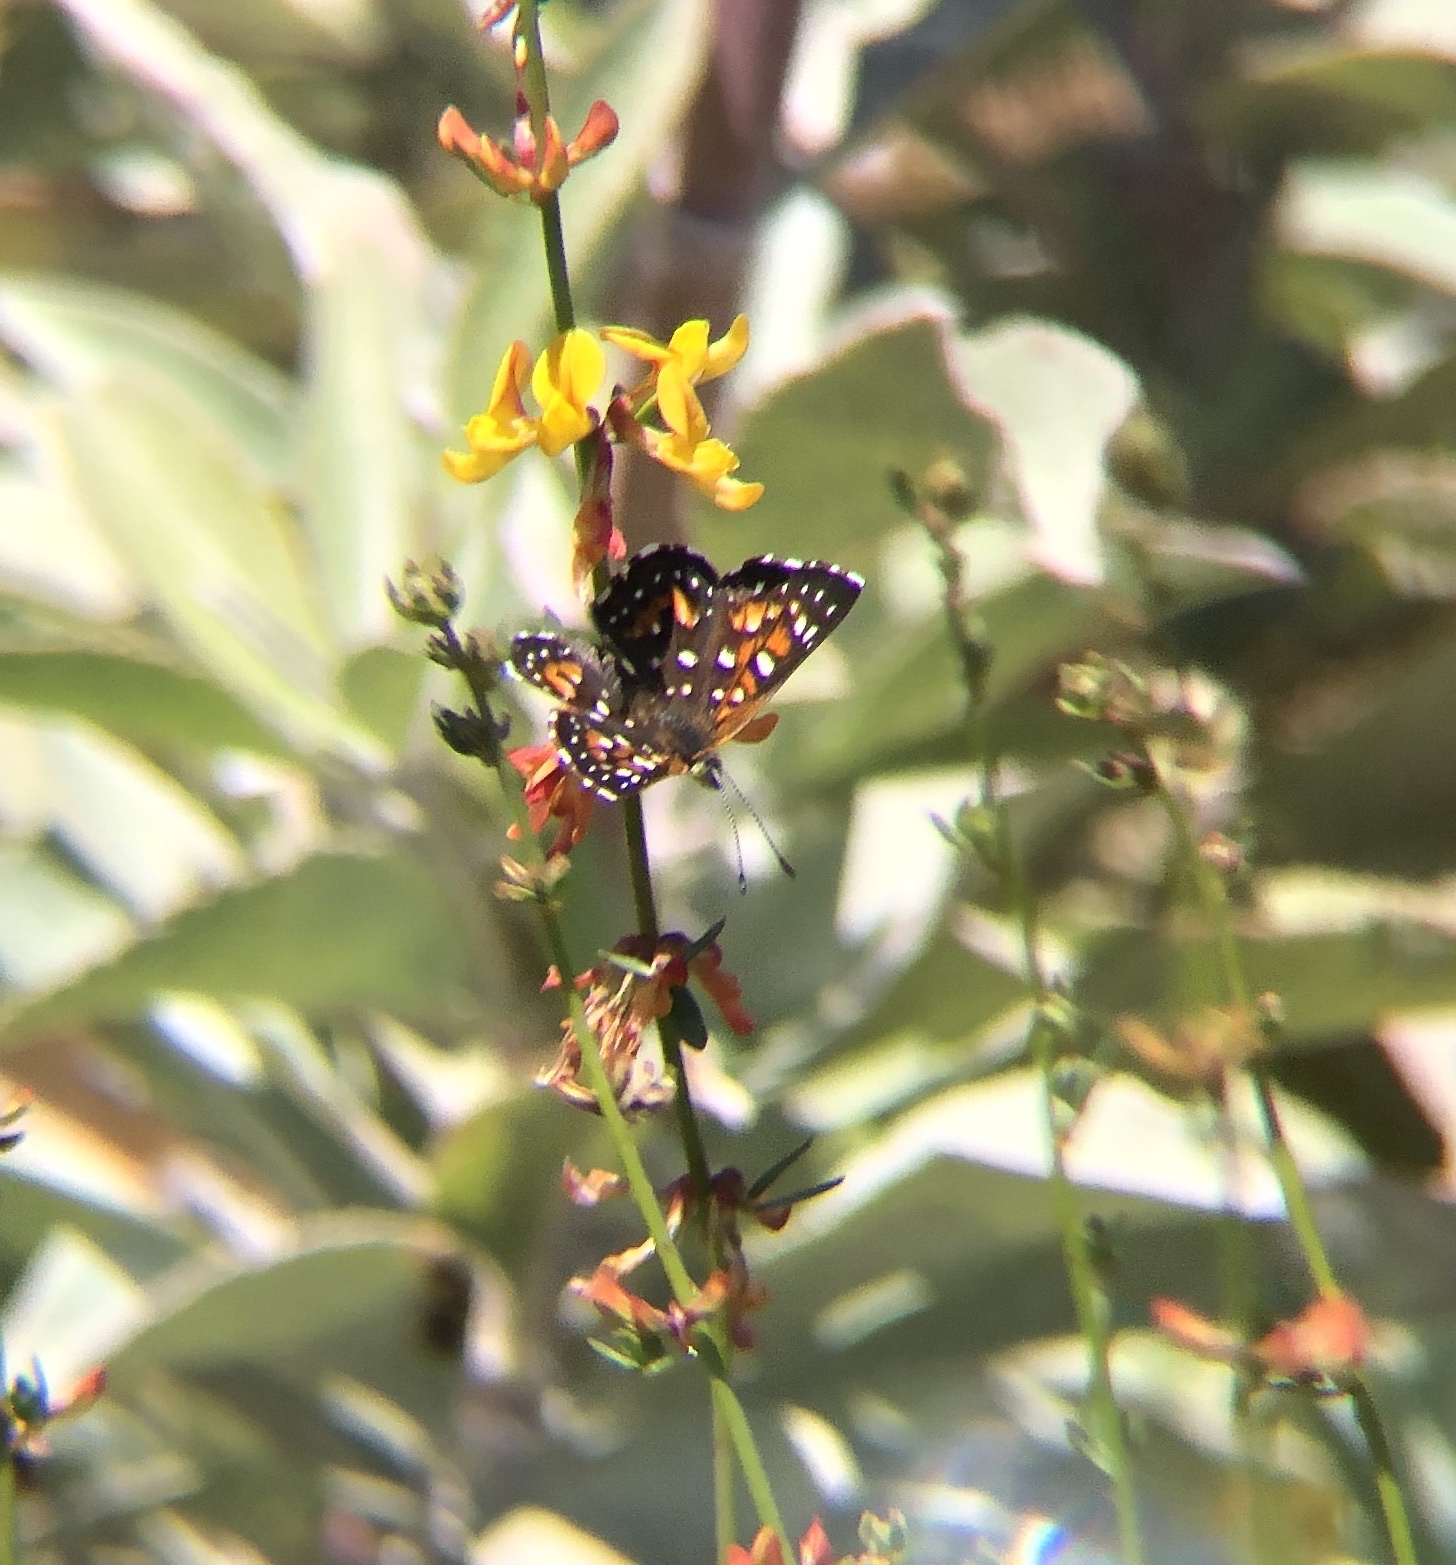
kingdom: Animalia
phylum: Arthropoda
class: Insecta
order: Lepidoptera
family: Riodinidae
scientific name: Riodinidae
